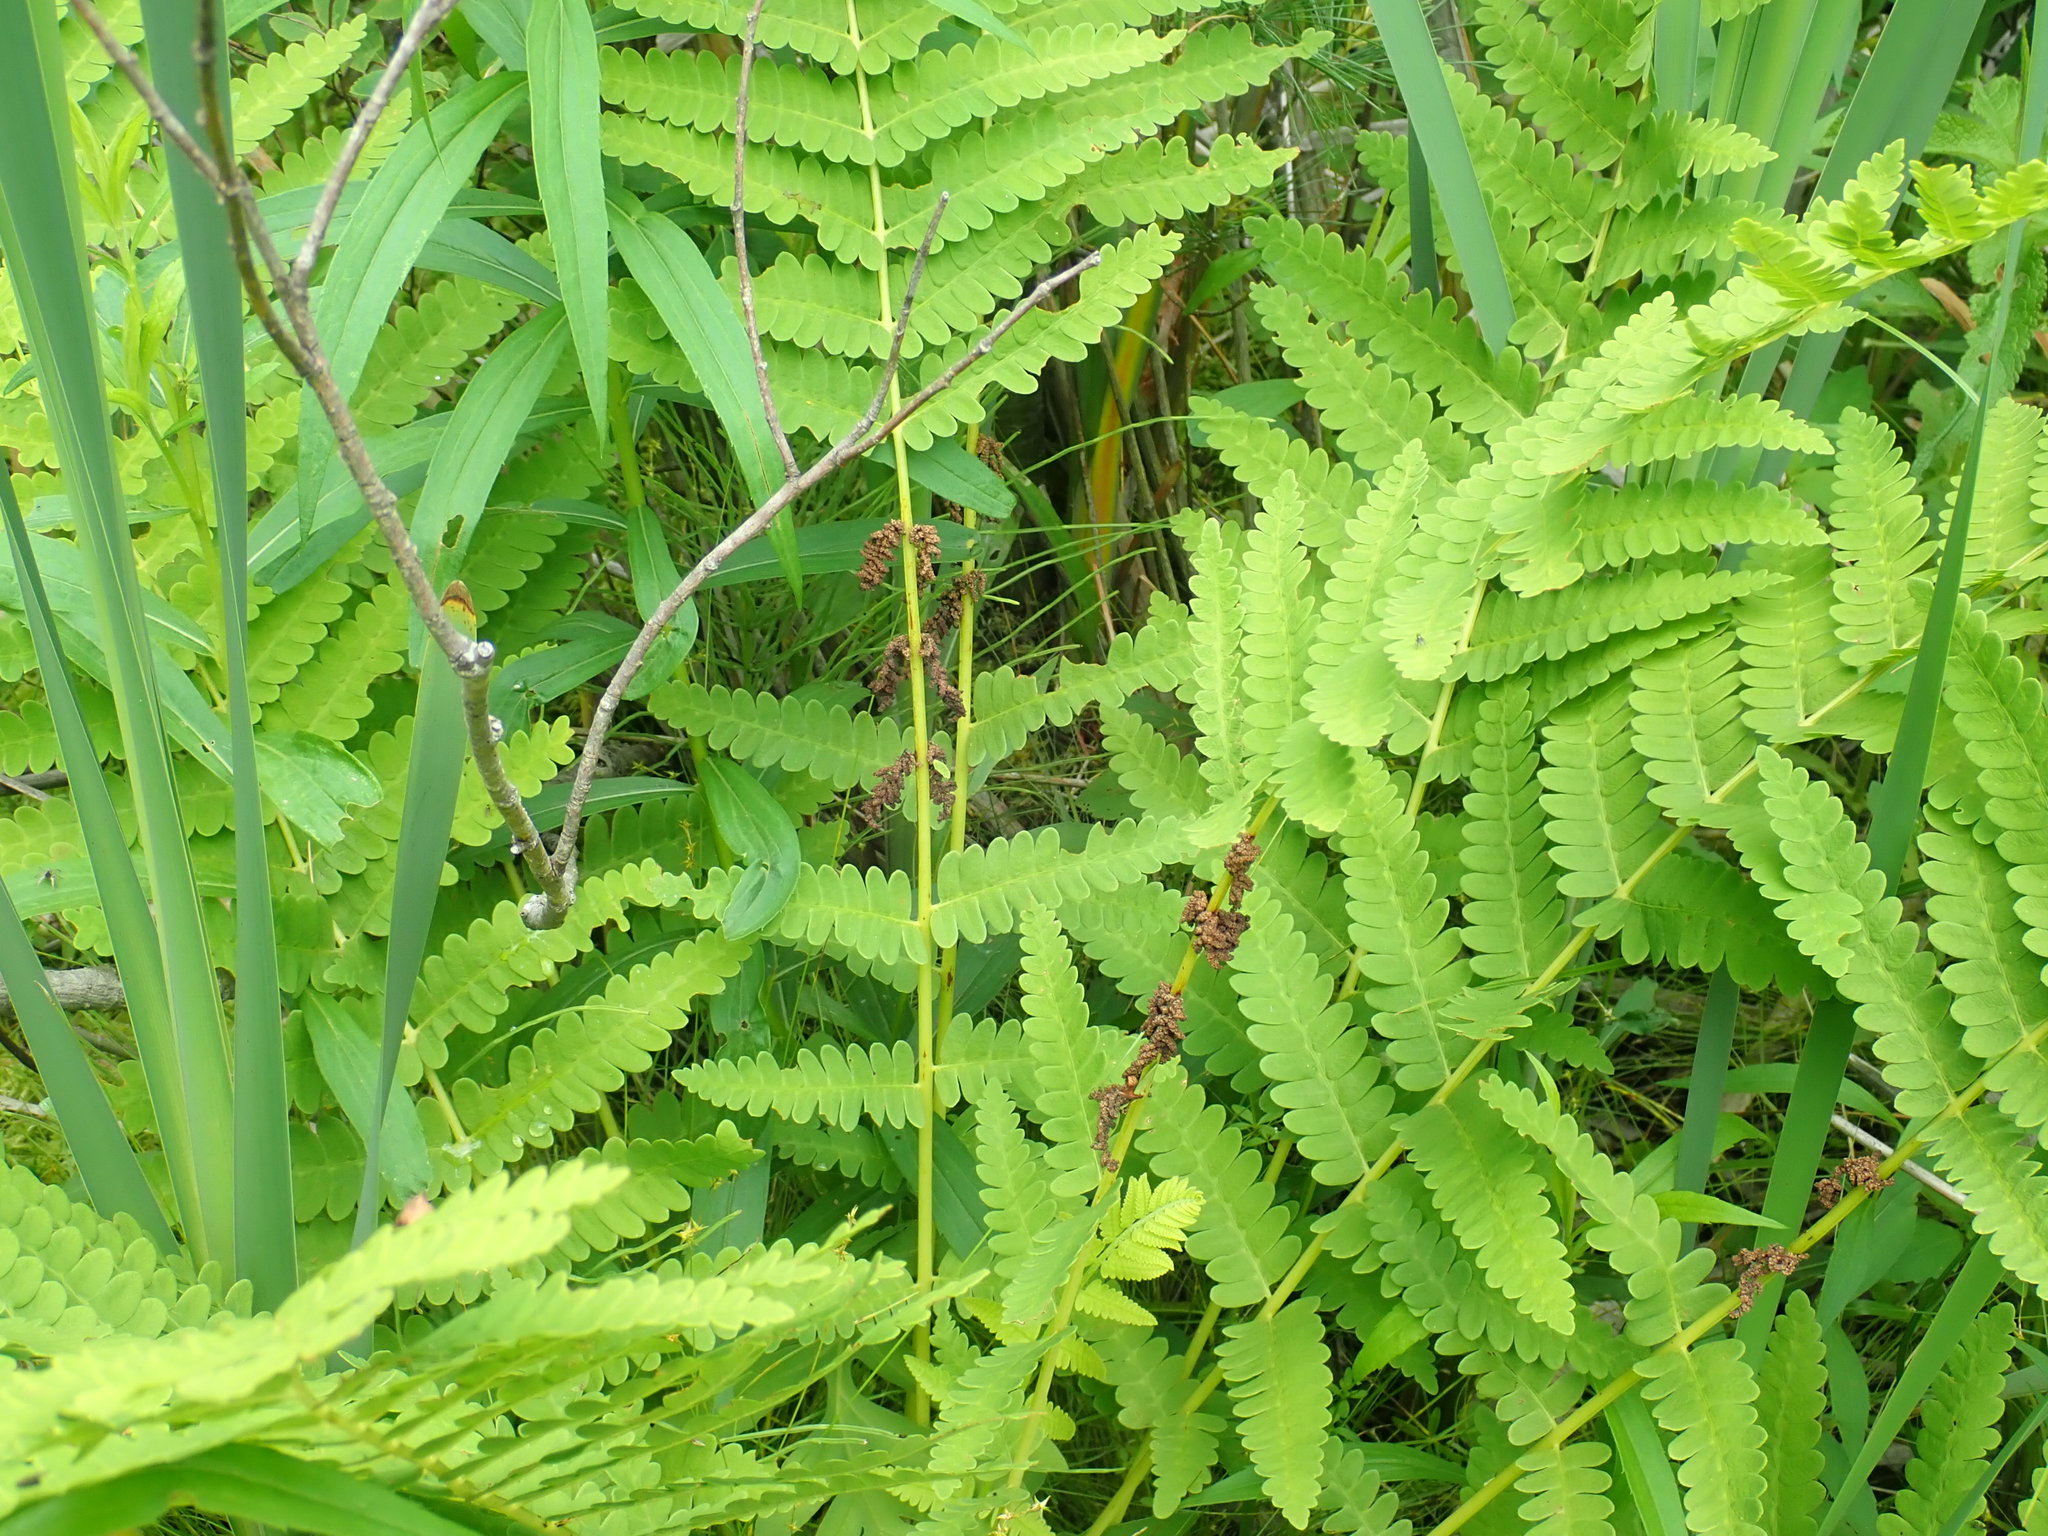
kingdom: Plantae
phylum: Tracheophyta
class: Polypodiopsida
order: Osmundales
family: Osmundaceae
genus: Claytosmunda
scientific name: Claytosmunda claytoniana
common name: Clayton's fern
